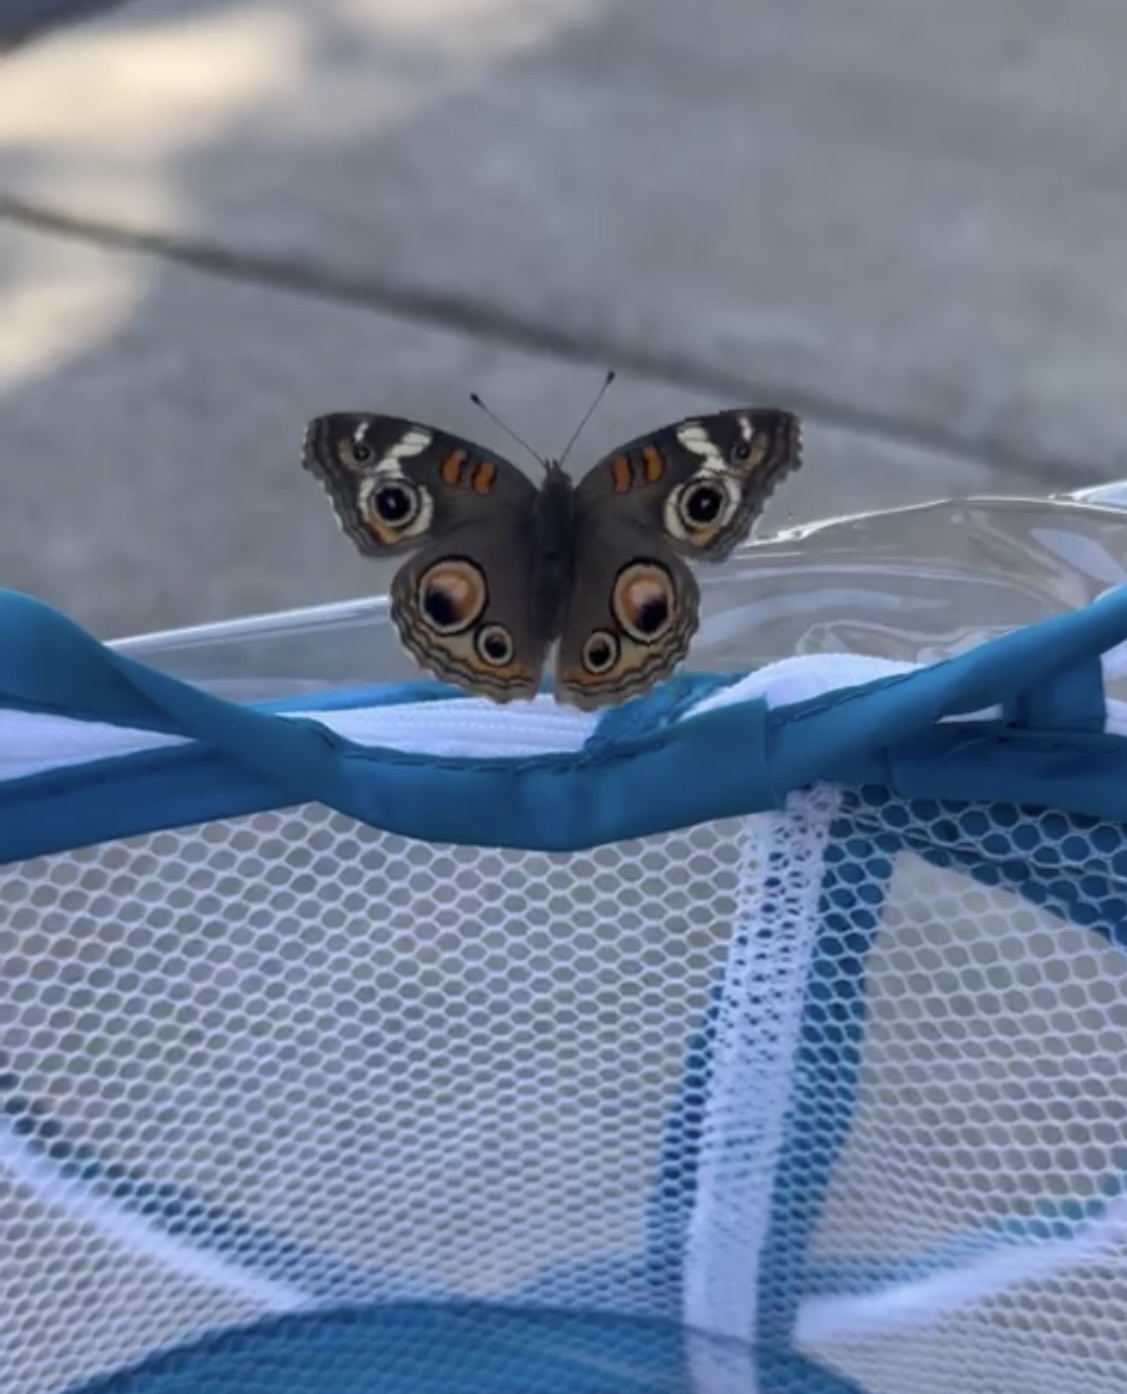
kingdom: Animalia
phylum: Arthropoda
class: Insecta
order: Lepidoptera
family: Nymphalidae
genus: Junonia
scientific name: Junonia grisea
